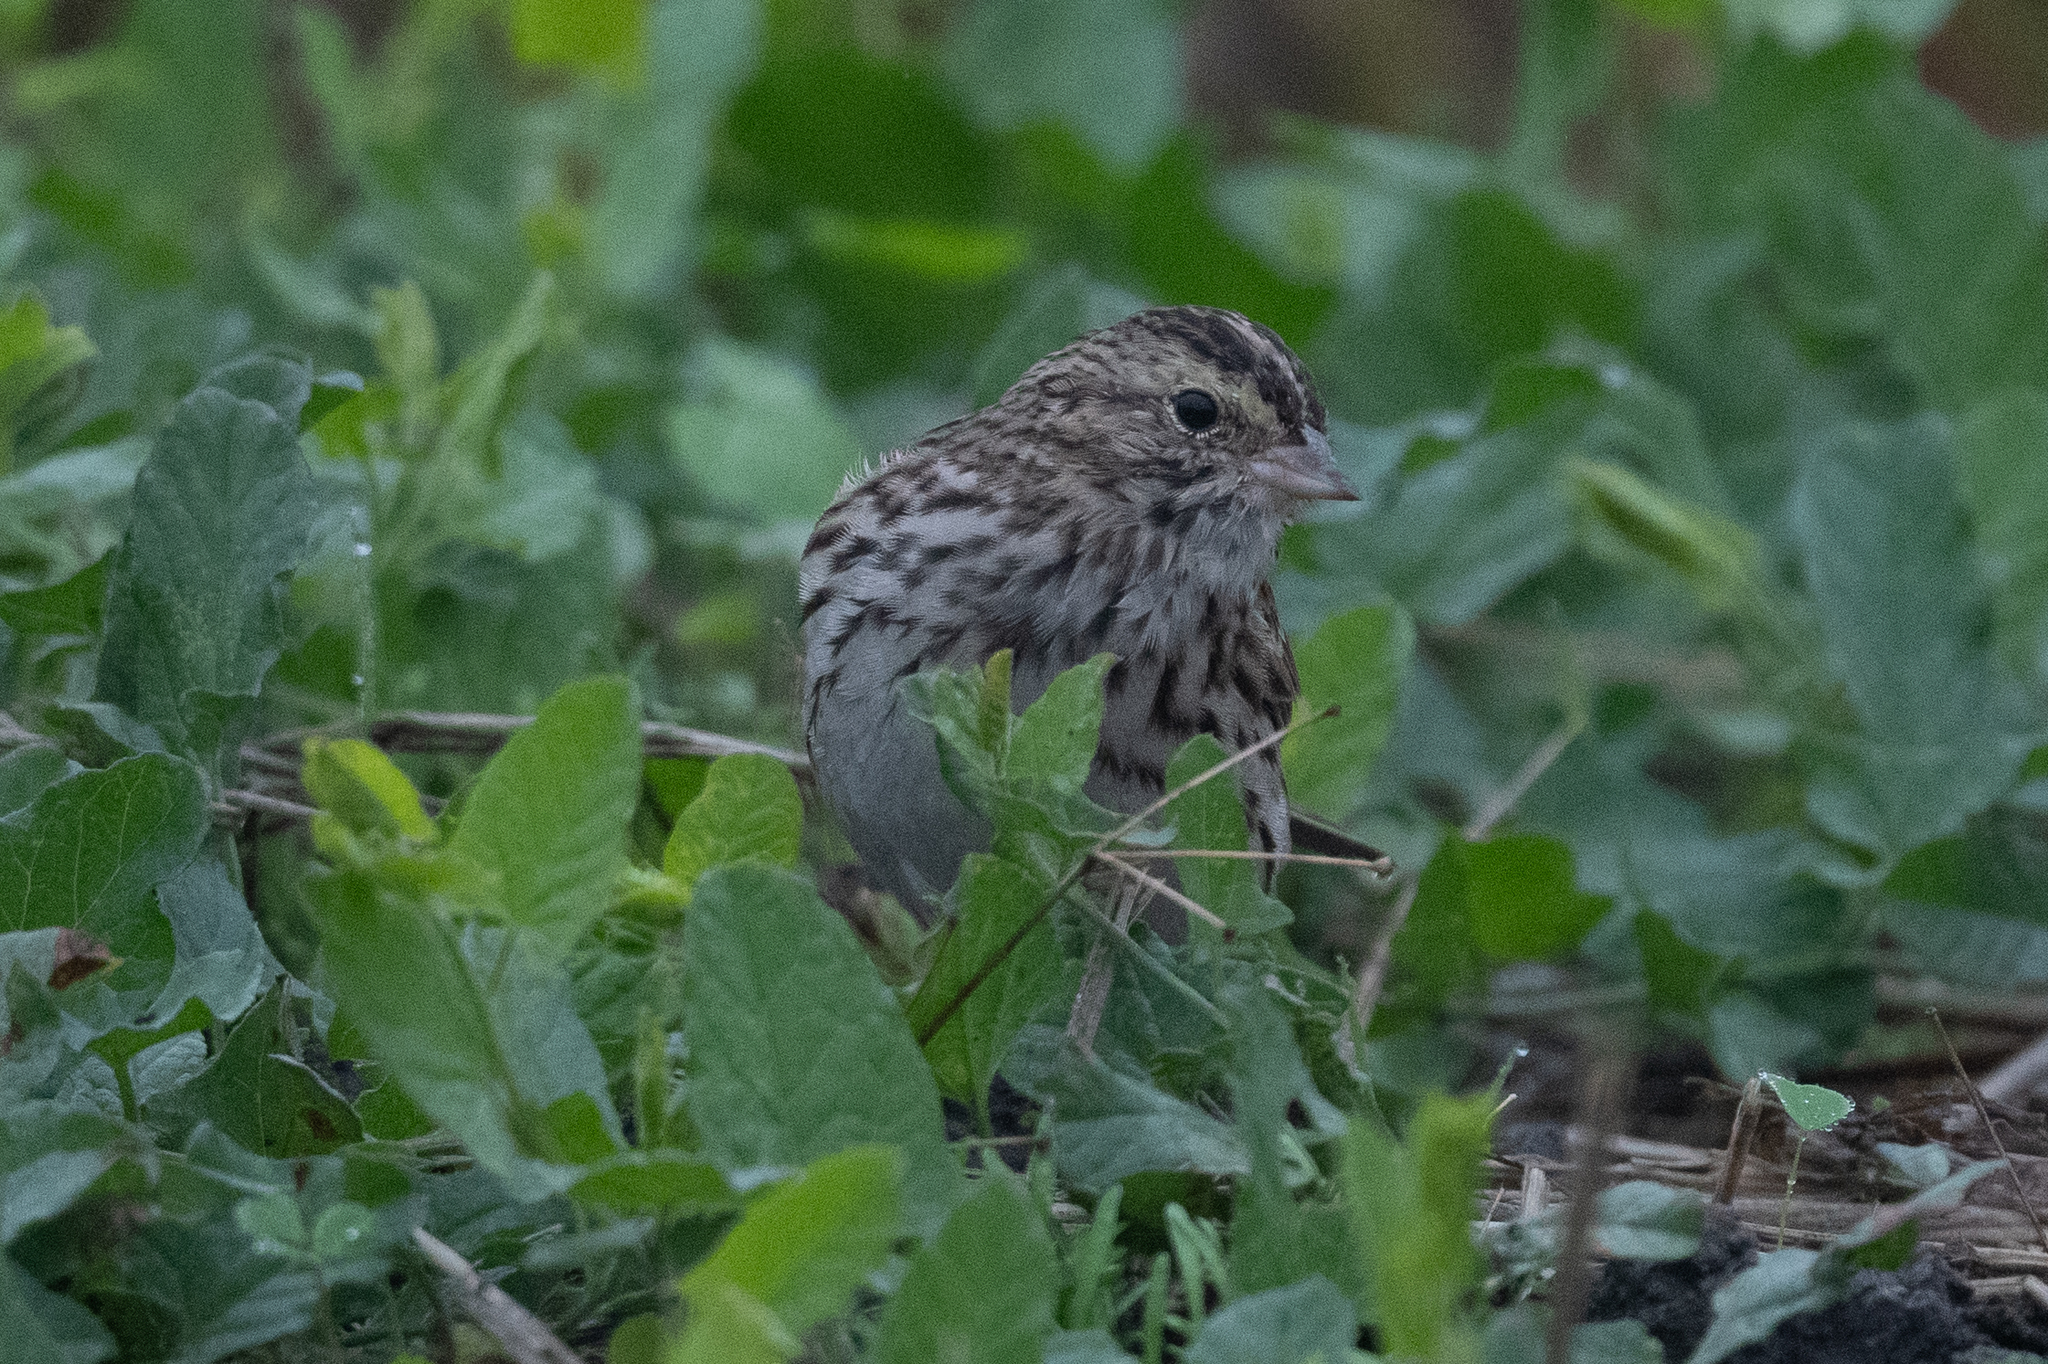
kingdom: Animalia
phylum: Chordata
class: Aves
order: Passeriformes
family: Passerellidae
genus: Passerculus
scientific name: Passerculus sandwichensis
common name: Savannah sparrow
